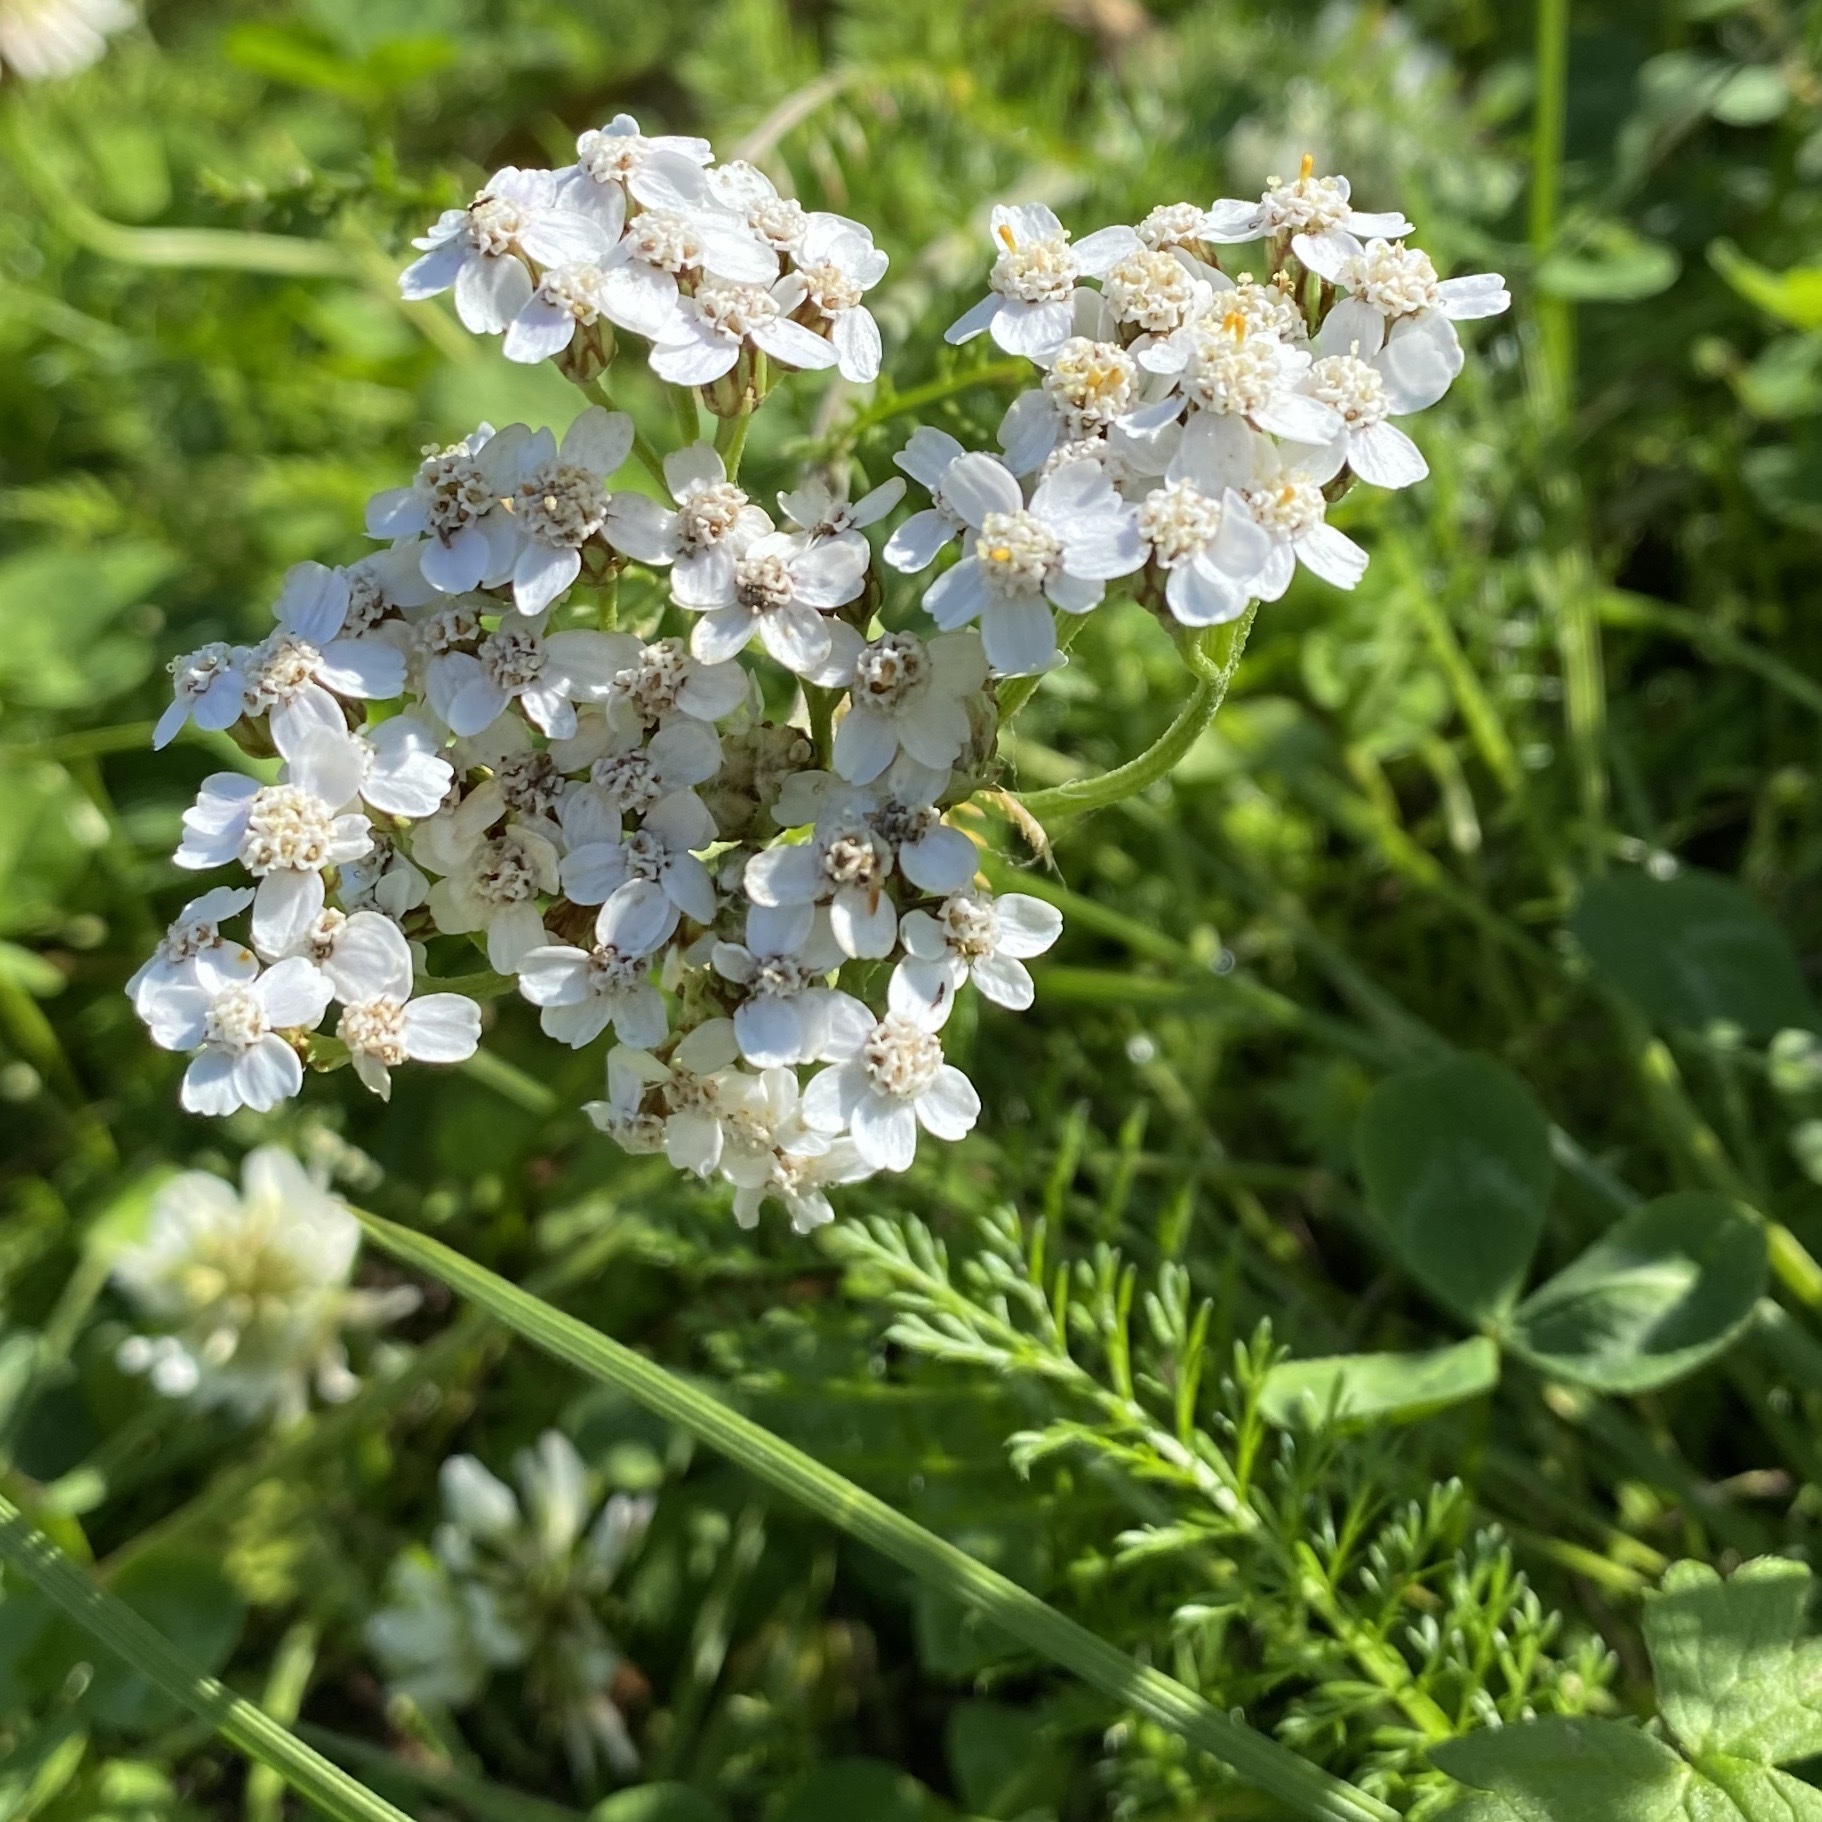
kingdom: Plantae
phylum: Tracheophyta
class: Magnoliopsida
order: Asterales
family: Asteraceae
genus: Achillea
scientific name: Achillea millefolium
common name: Yarrow
